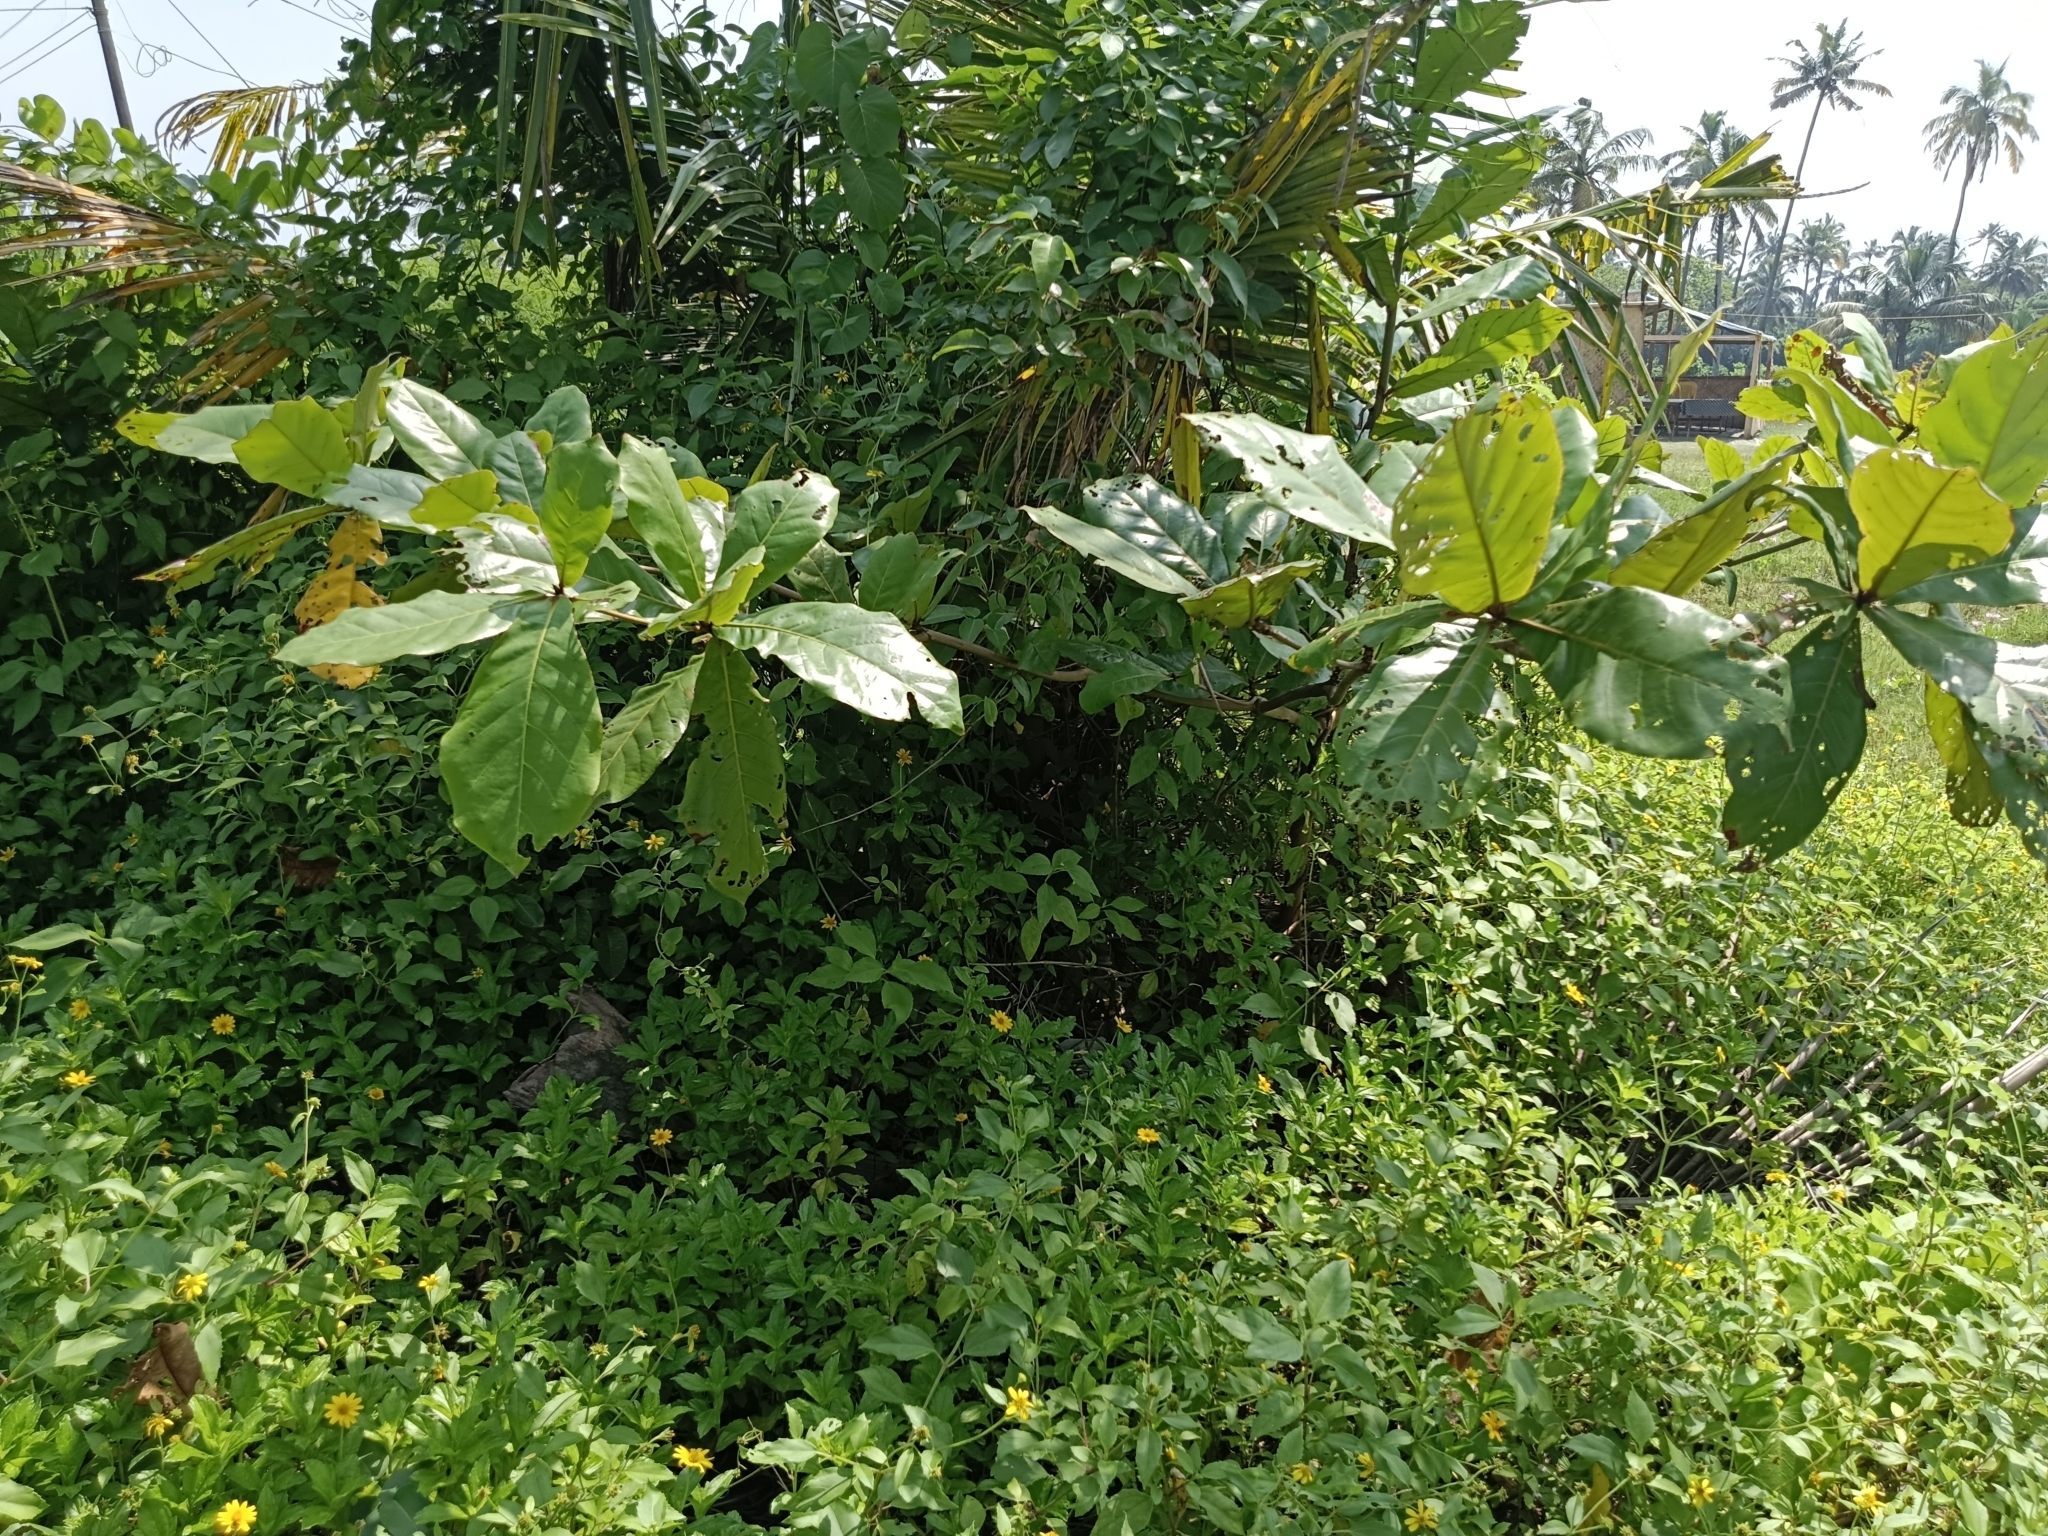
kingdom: Plantae
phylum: Tracheophyta
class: Magnoliopsida
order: Myrtales
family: Combretaceae
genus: Terminalia
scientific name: Terminalia catappa
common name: Tropical almond
